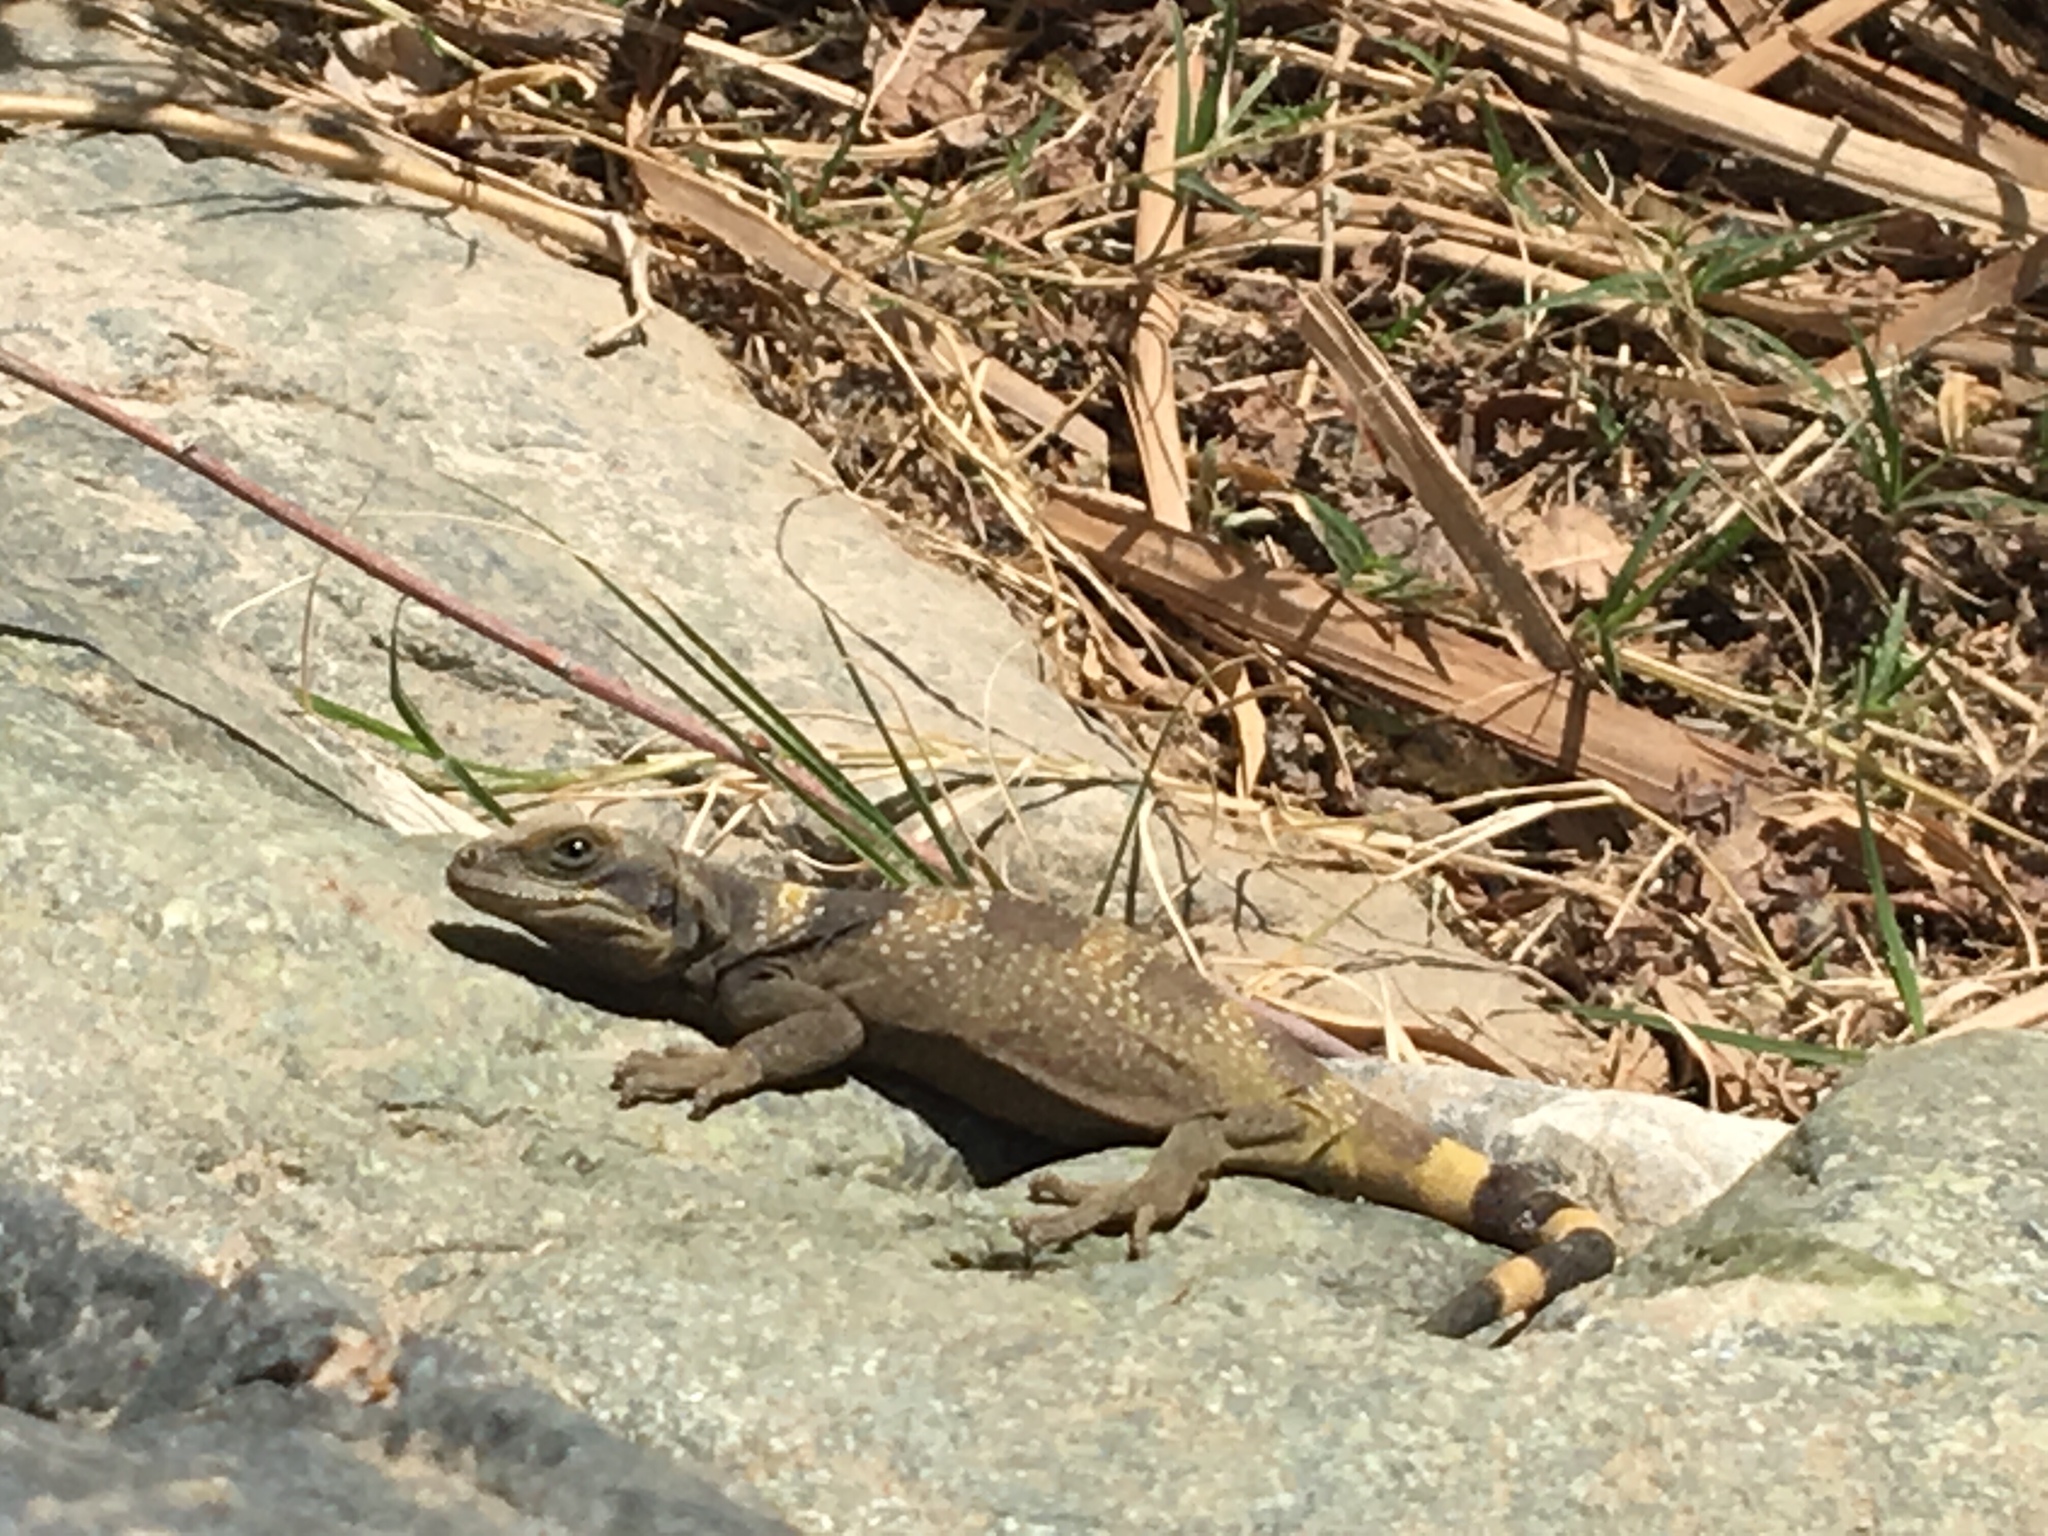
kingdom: Animalia
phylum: Chordata
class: Squamata
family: Iguanidae
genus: Sauromalus
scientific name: Sauromalus ater
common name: Northern chuckwalla
